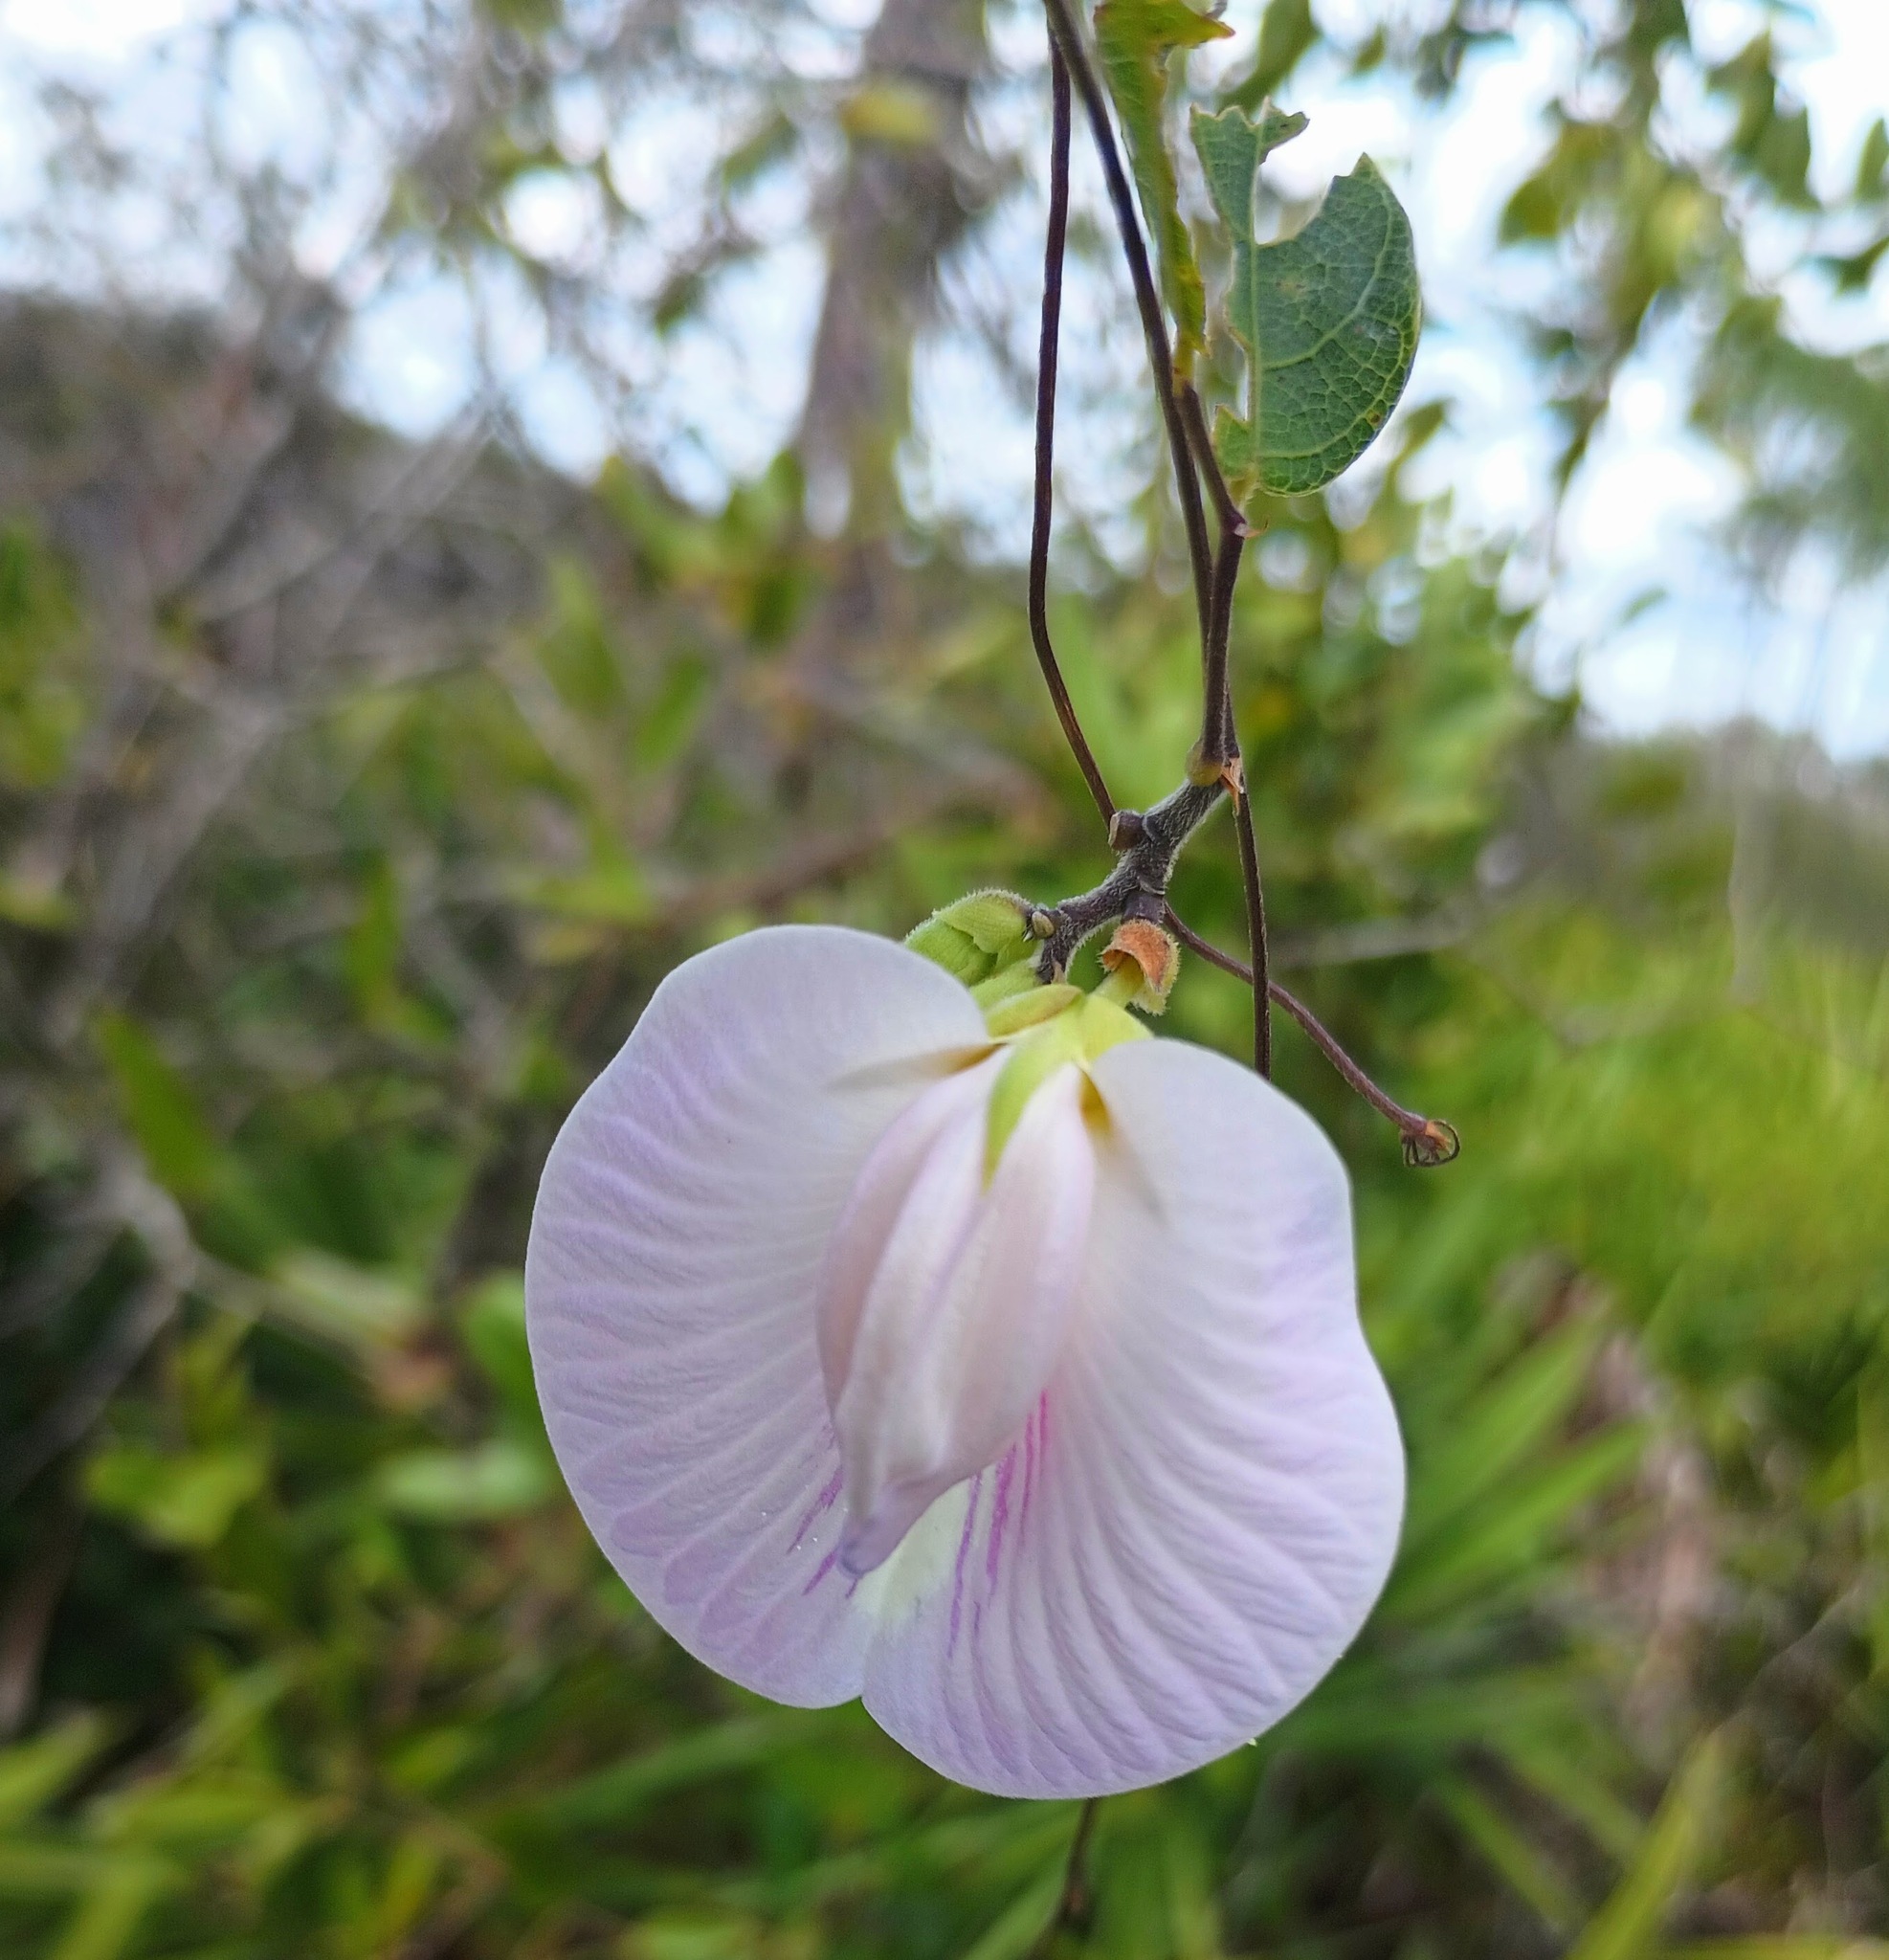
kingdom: Plantae
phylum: Tracheophyta
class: Magnoliopsida
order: Fabales
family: Fabaceae
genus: Centrosema
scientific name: Centrosema arenicola
